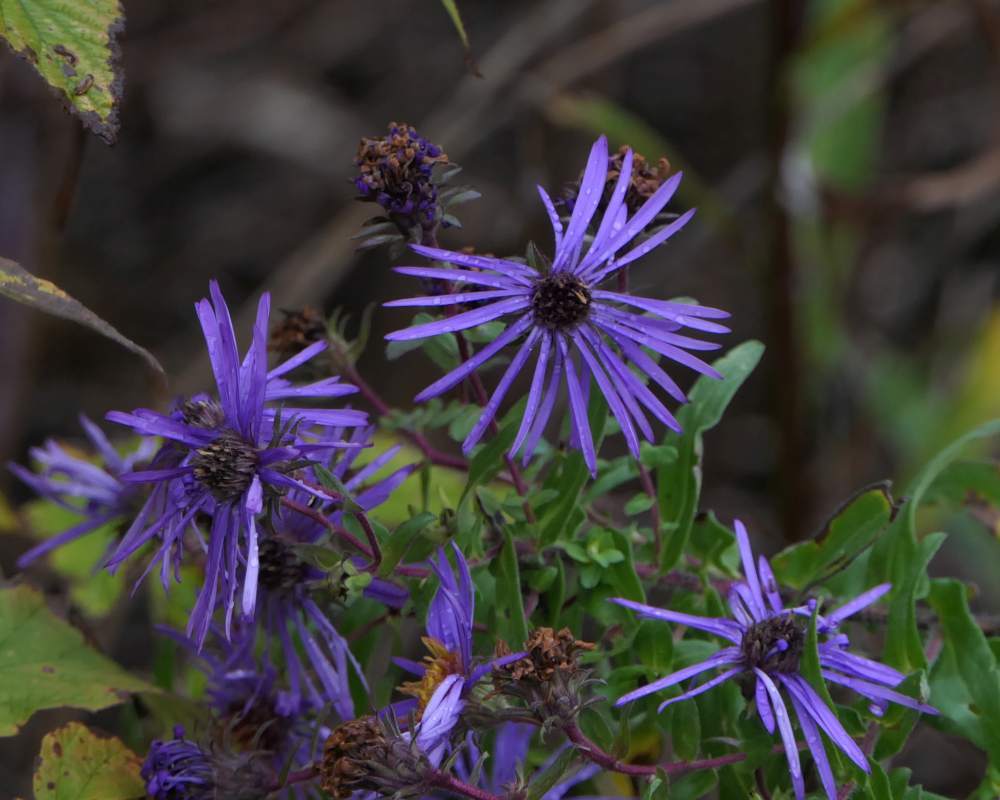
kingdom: Plantae
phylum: Tracheophyta
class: Magnoliopsida
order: Asterales
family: Asteraceae
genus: Symphyotrichum
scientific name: Symphyotrichum novae-angliae
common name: Michaelmas daisy
